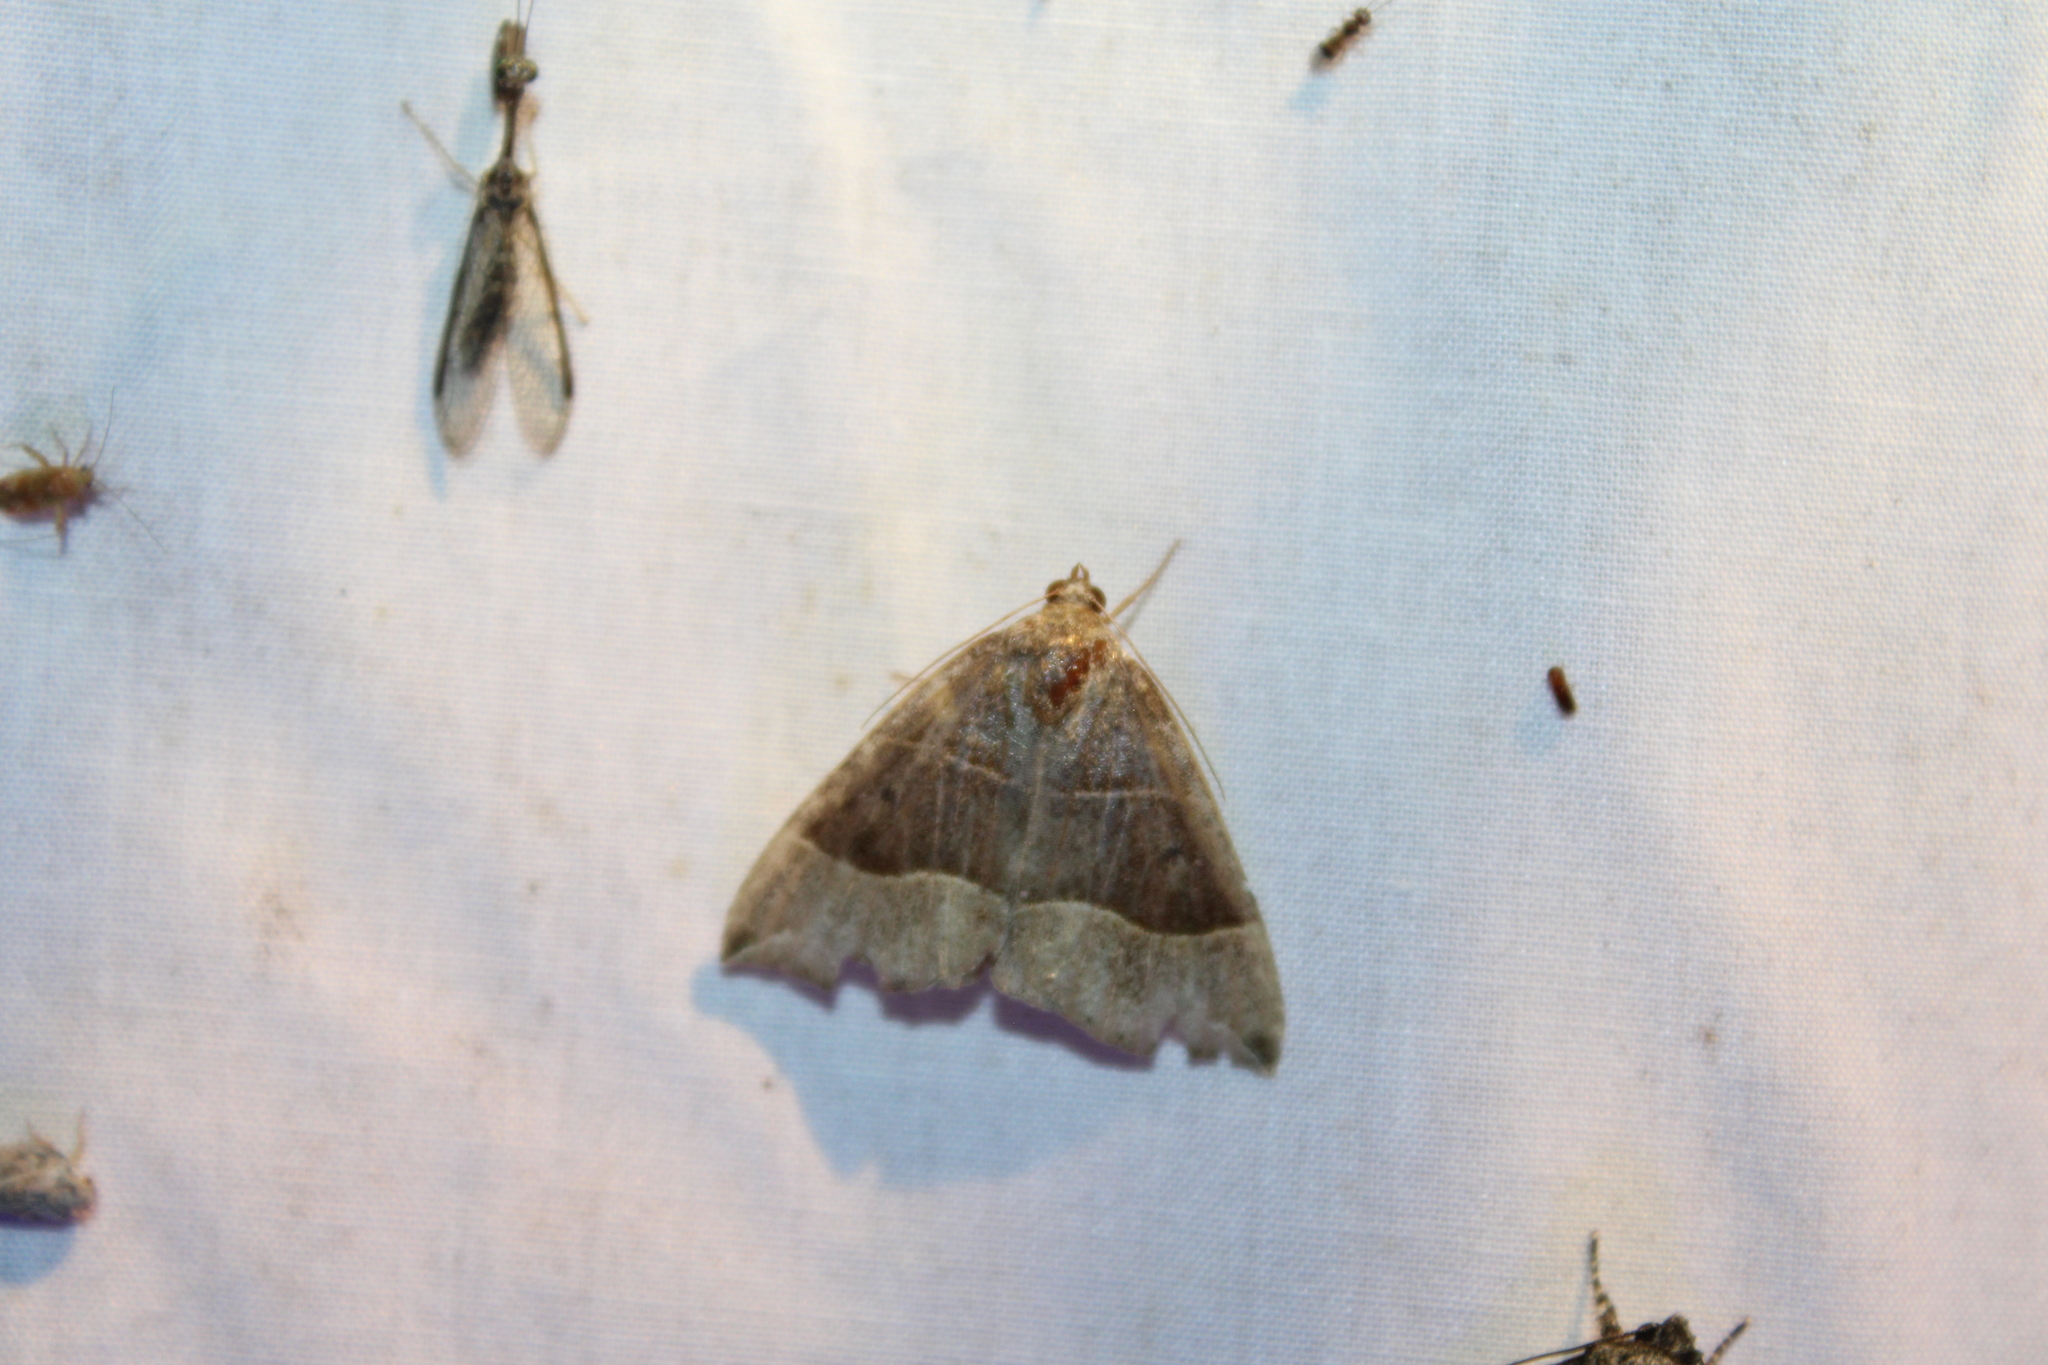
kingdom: Animalia
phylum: Arthropoda
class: Insecta
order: Lepidoptera
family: Erebidae
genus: Parallelia
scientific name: Parallelia bistriaris
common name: Maple looper moth
